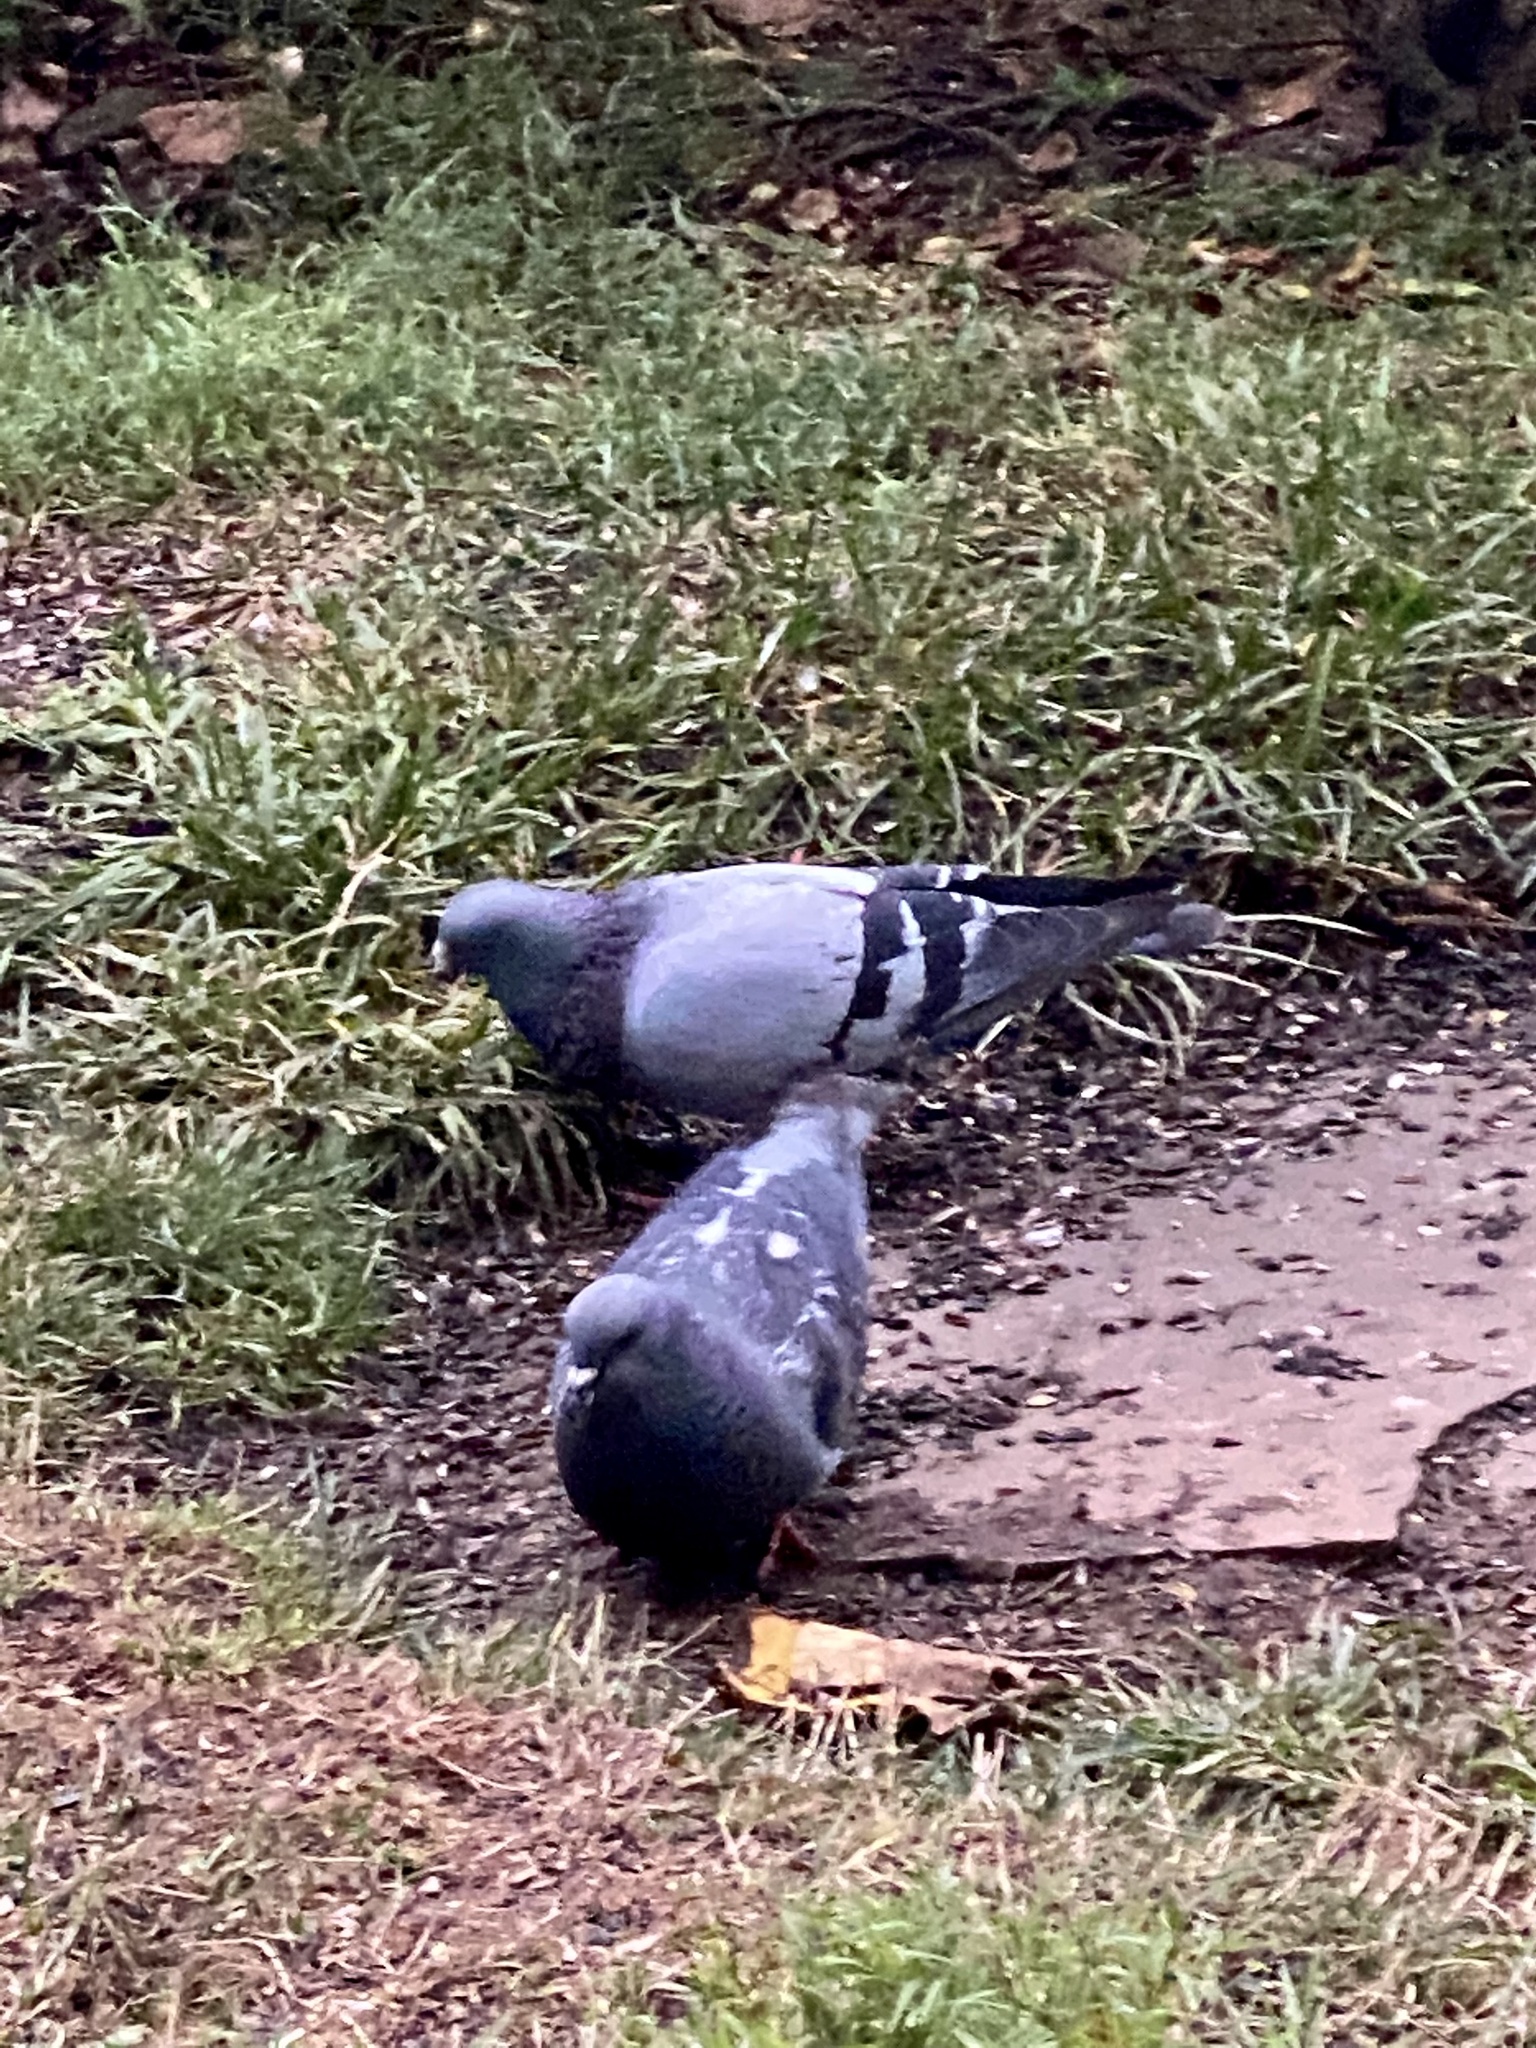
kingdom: Animalia
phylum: Chordata
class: Aves
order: Columbiformes
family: Columbidae
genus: Columba
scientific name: Columba livia
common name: Rock pigeon
